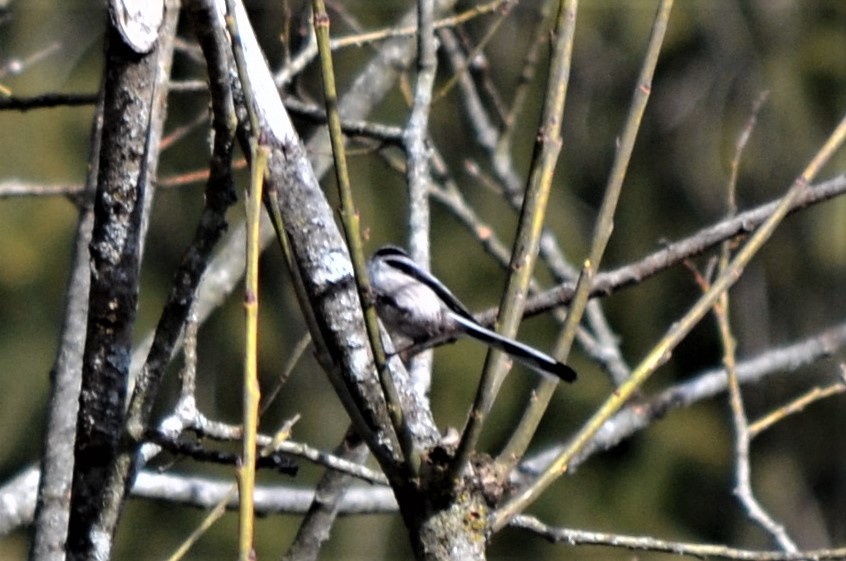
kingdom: Animalia
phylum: Chordata
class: Aves
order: Passeriformes
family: Aegithalidae
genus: Aegithalos
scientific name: Aegithalos caudatus
